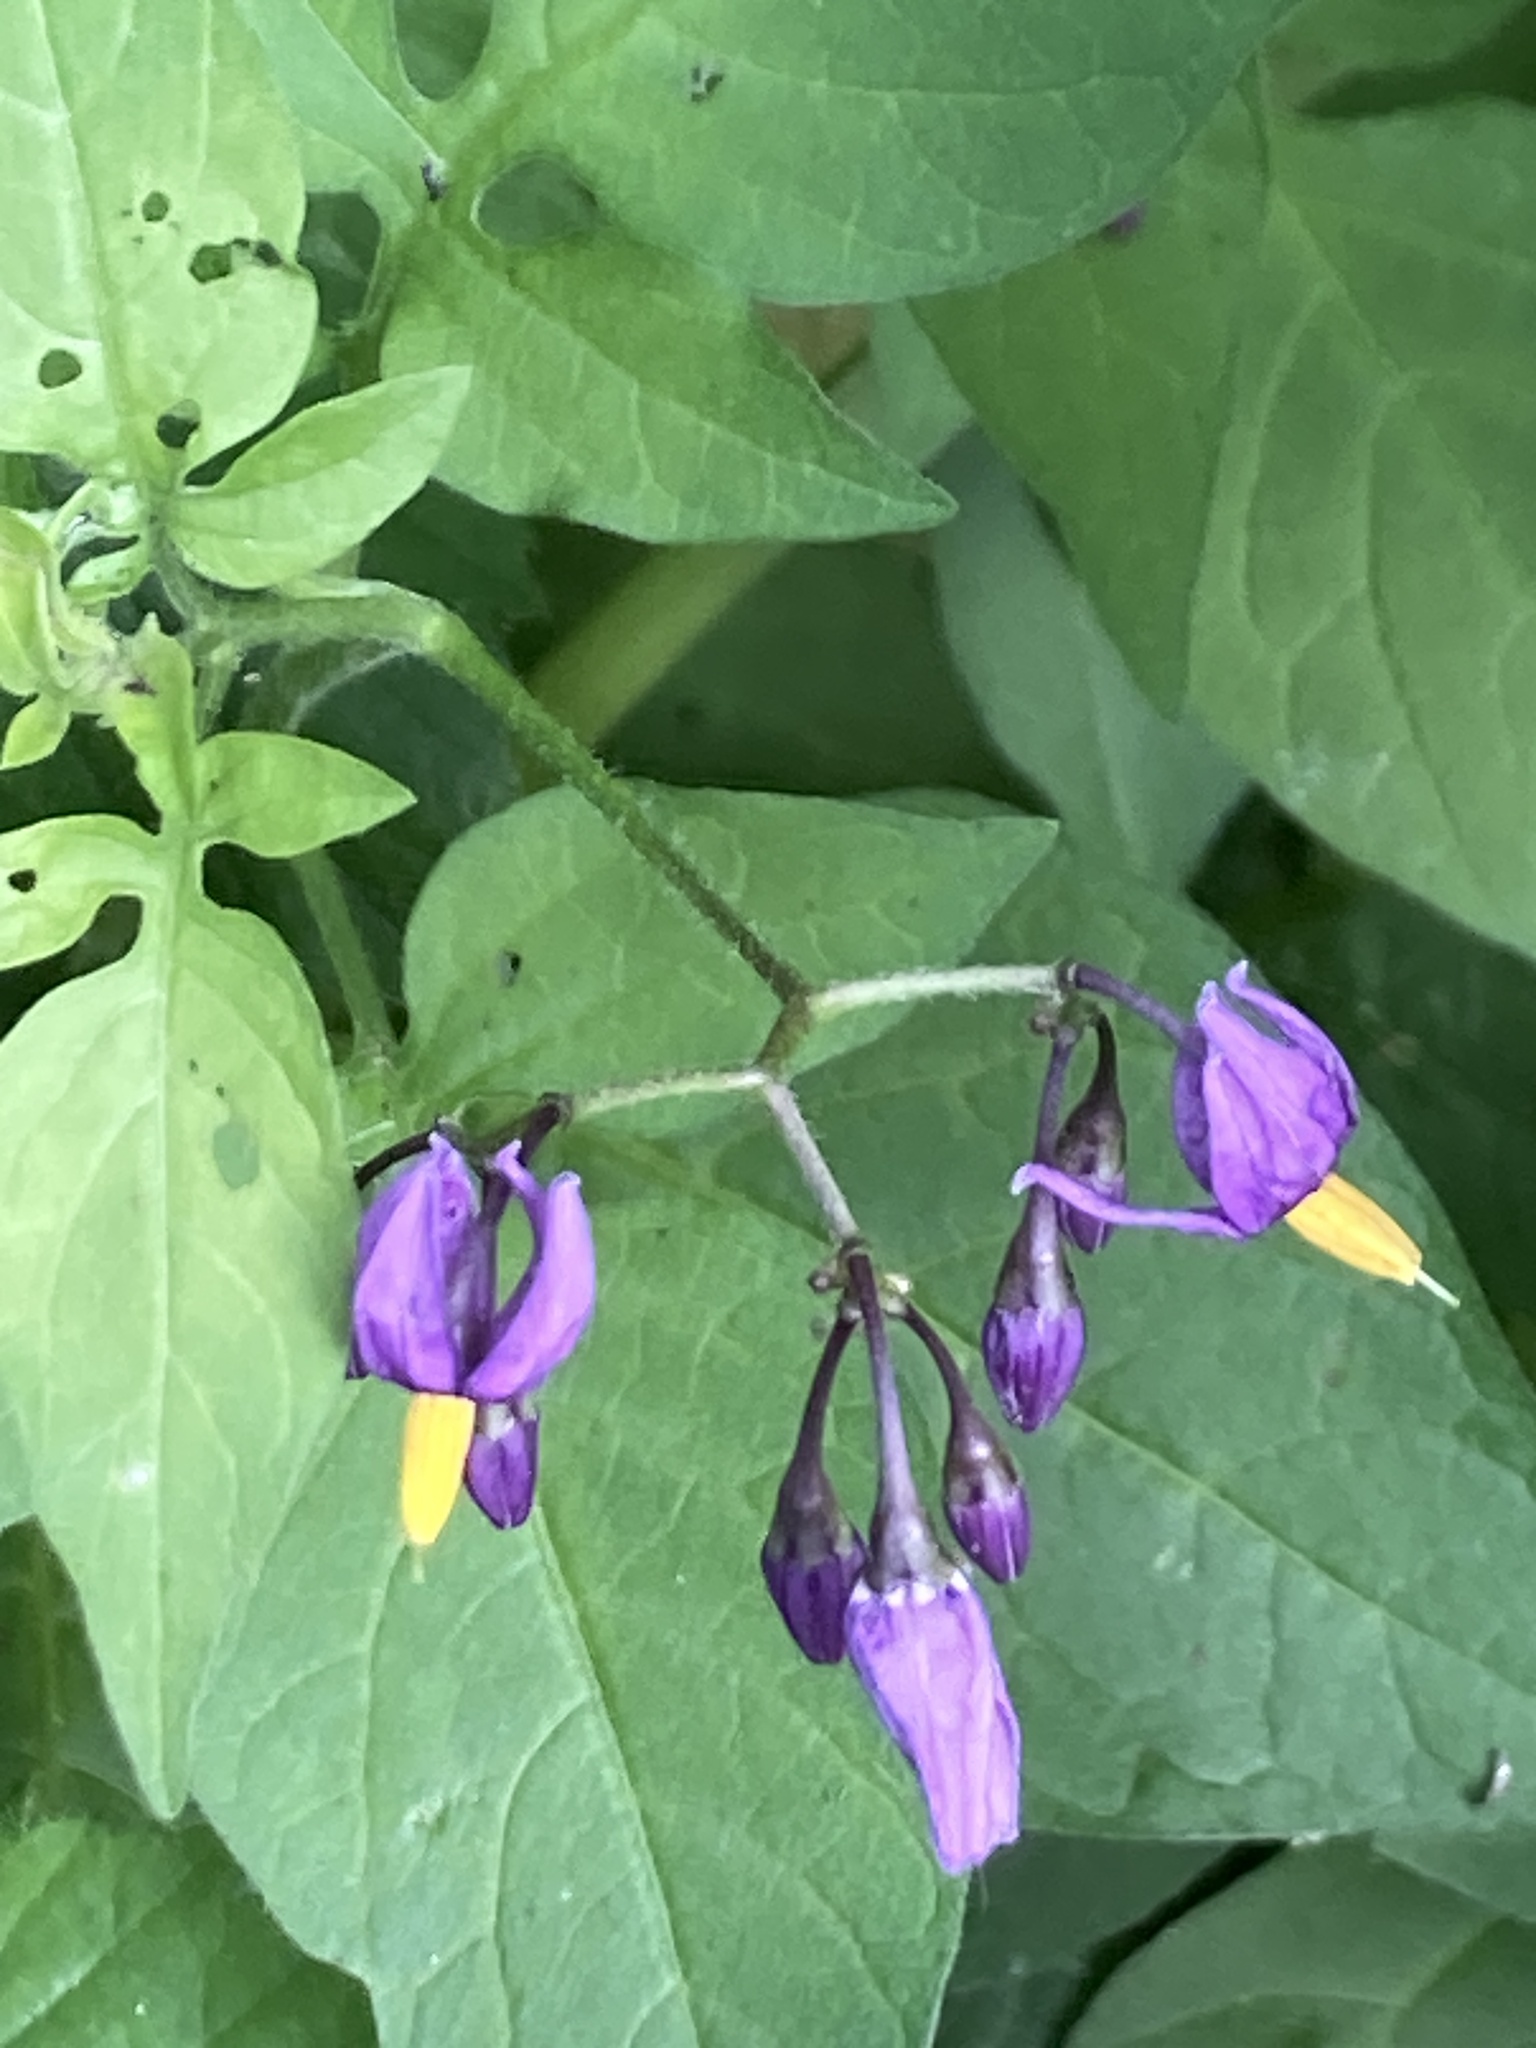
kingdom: Plantae
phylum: Tracheophyta
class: Magnoliopsida
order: Solanales
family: Solanaceae
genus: Solanum
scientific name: Solanum dulcamara
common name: Climbing nightshade
